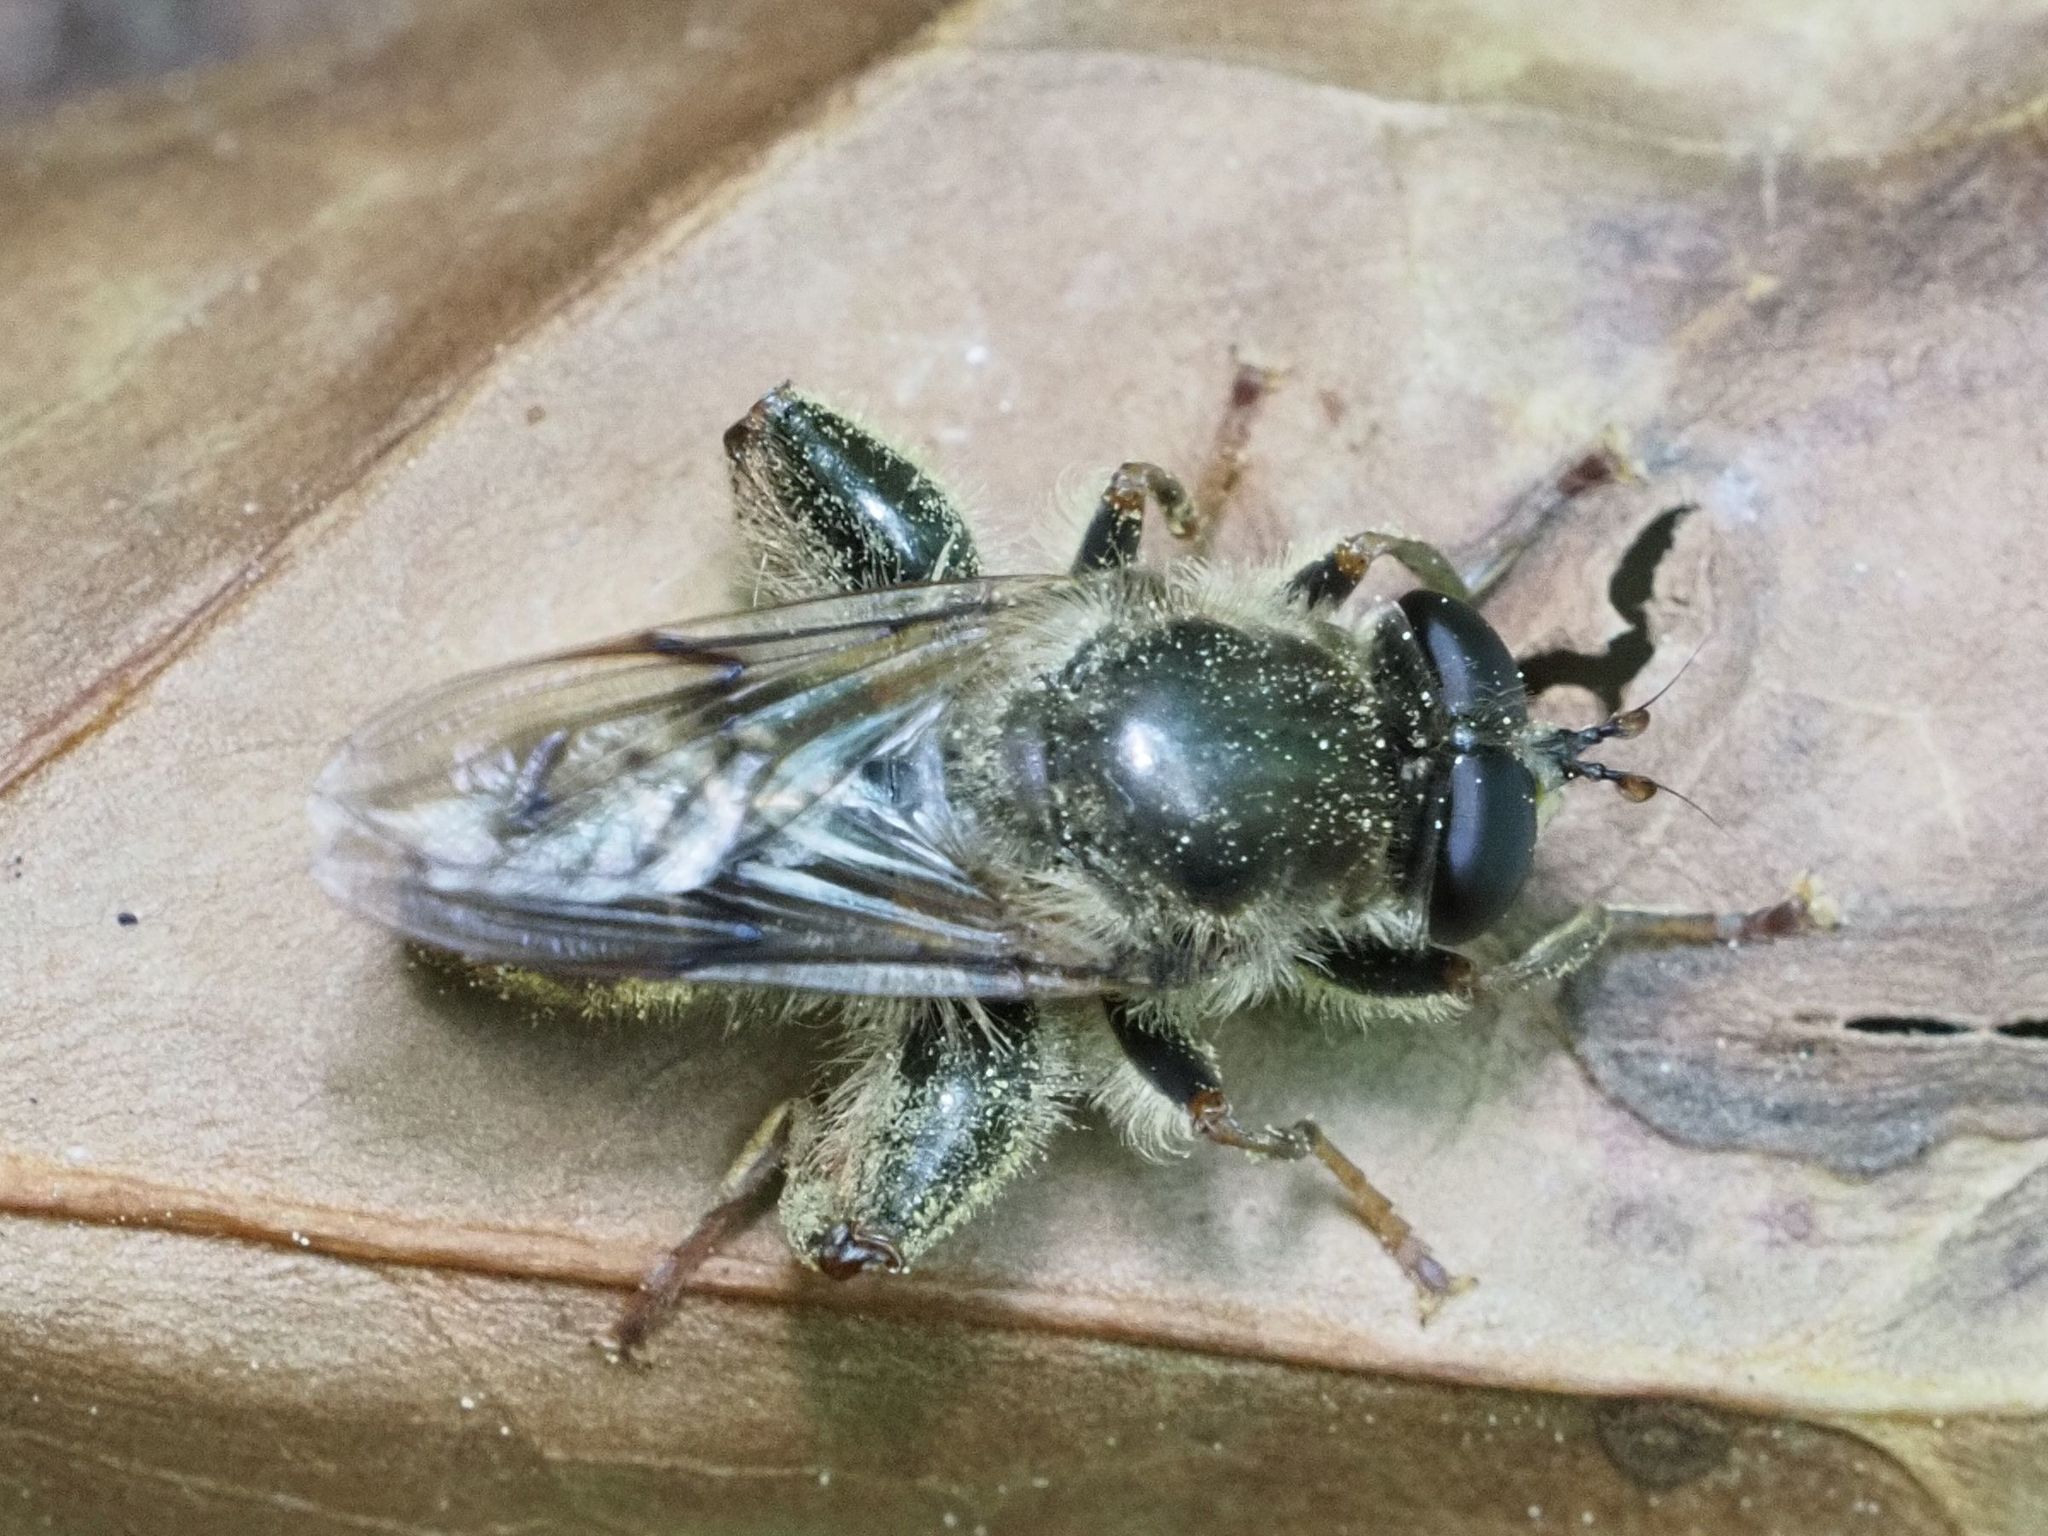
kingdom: Animalia
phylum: Arthropoda
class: Insecta
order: Diptera
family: Syrphidae
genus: Criorhina
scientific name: Criorhina pachymera
